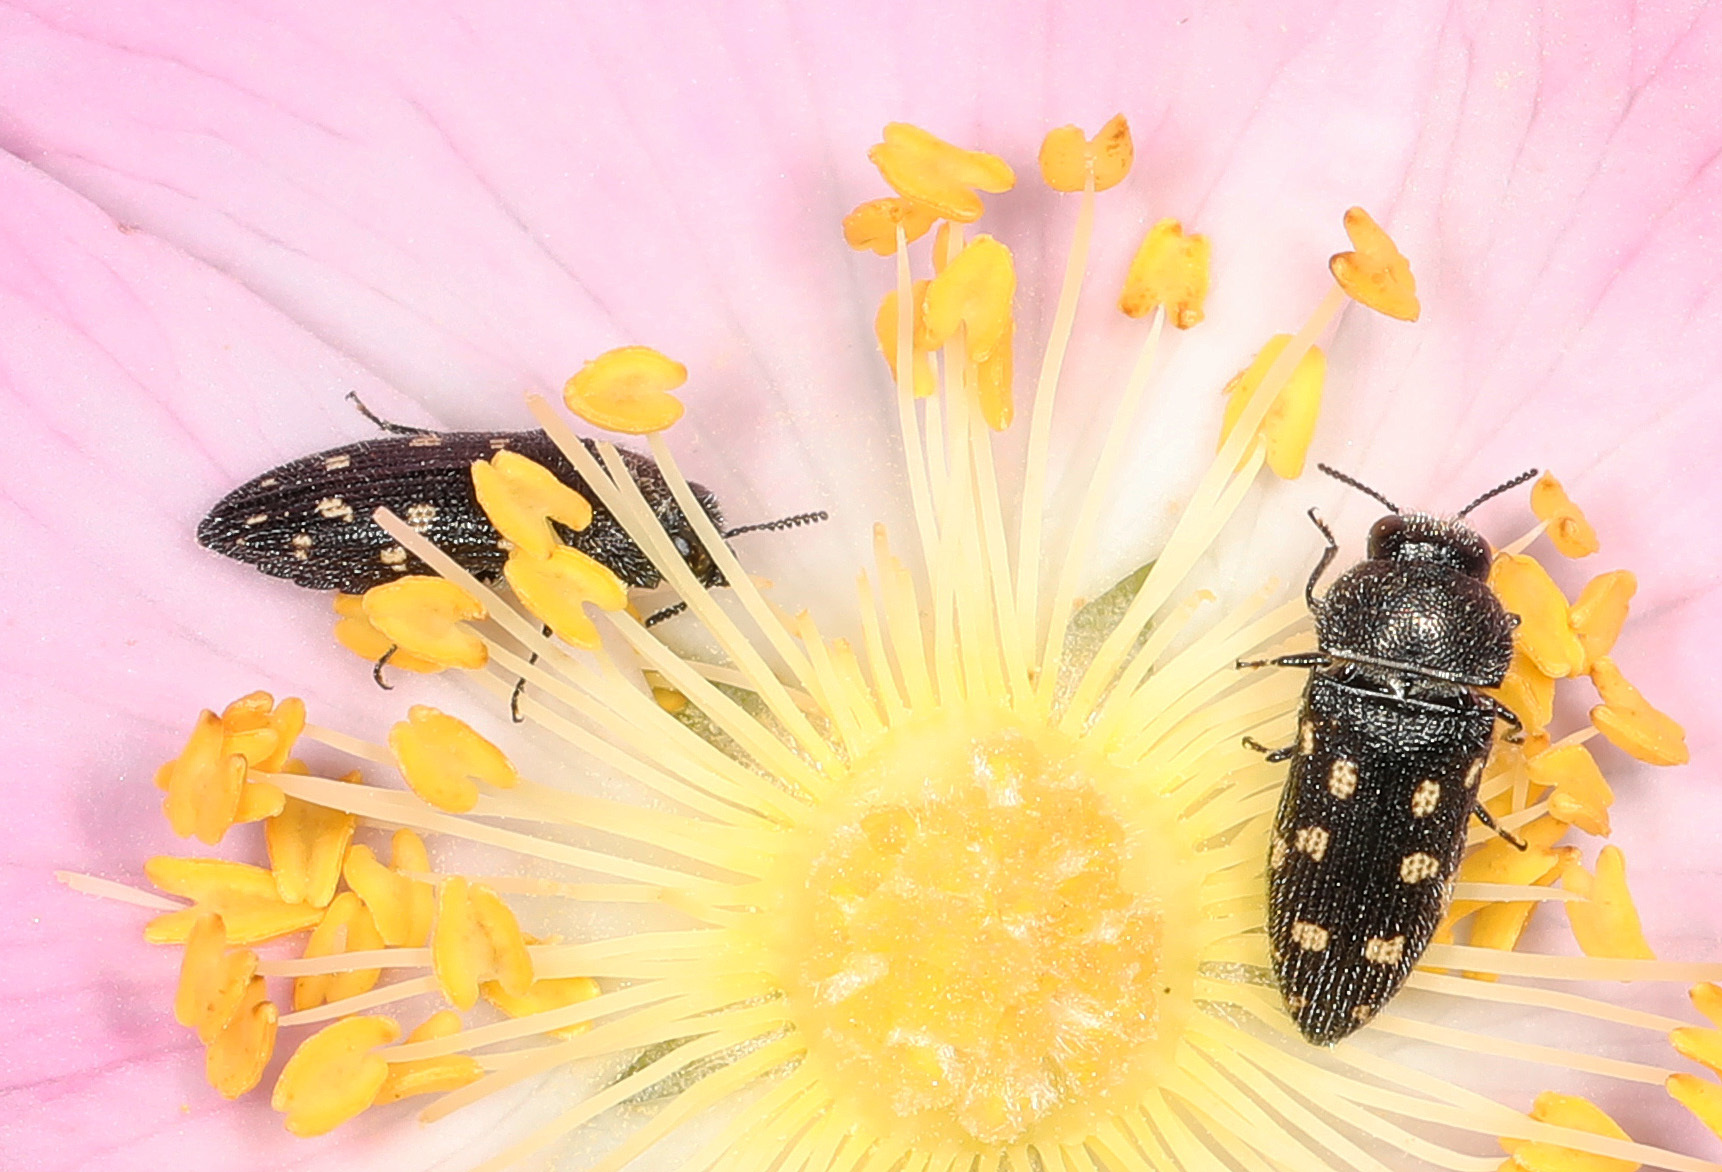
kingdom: Animalia
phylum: Arthropoda
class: Insecta
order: Coleoptera
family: Buprestidae
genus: Acmaeodera
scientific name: Acmaeodera tubulus
